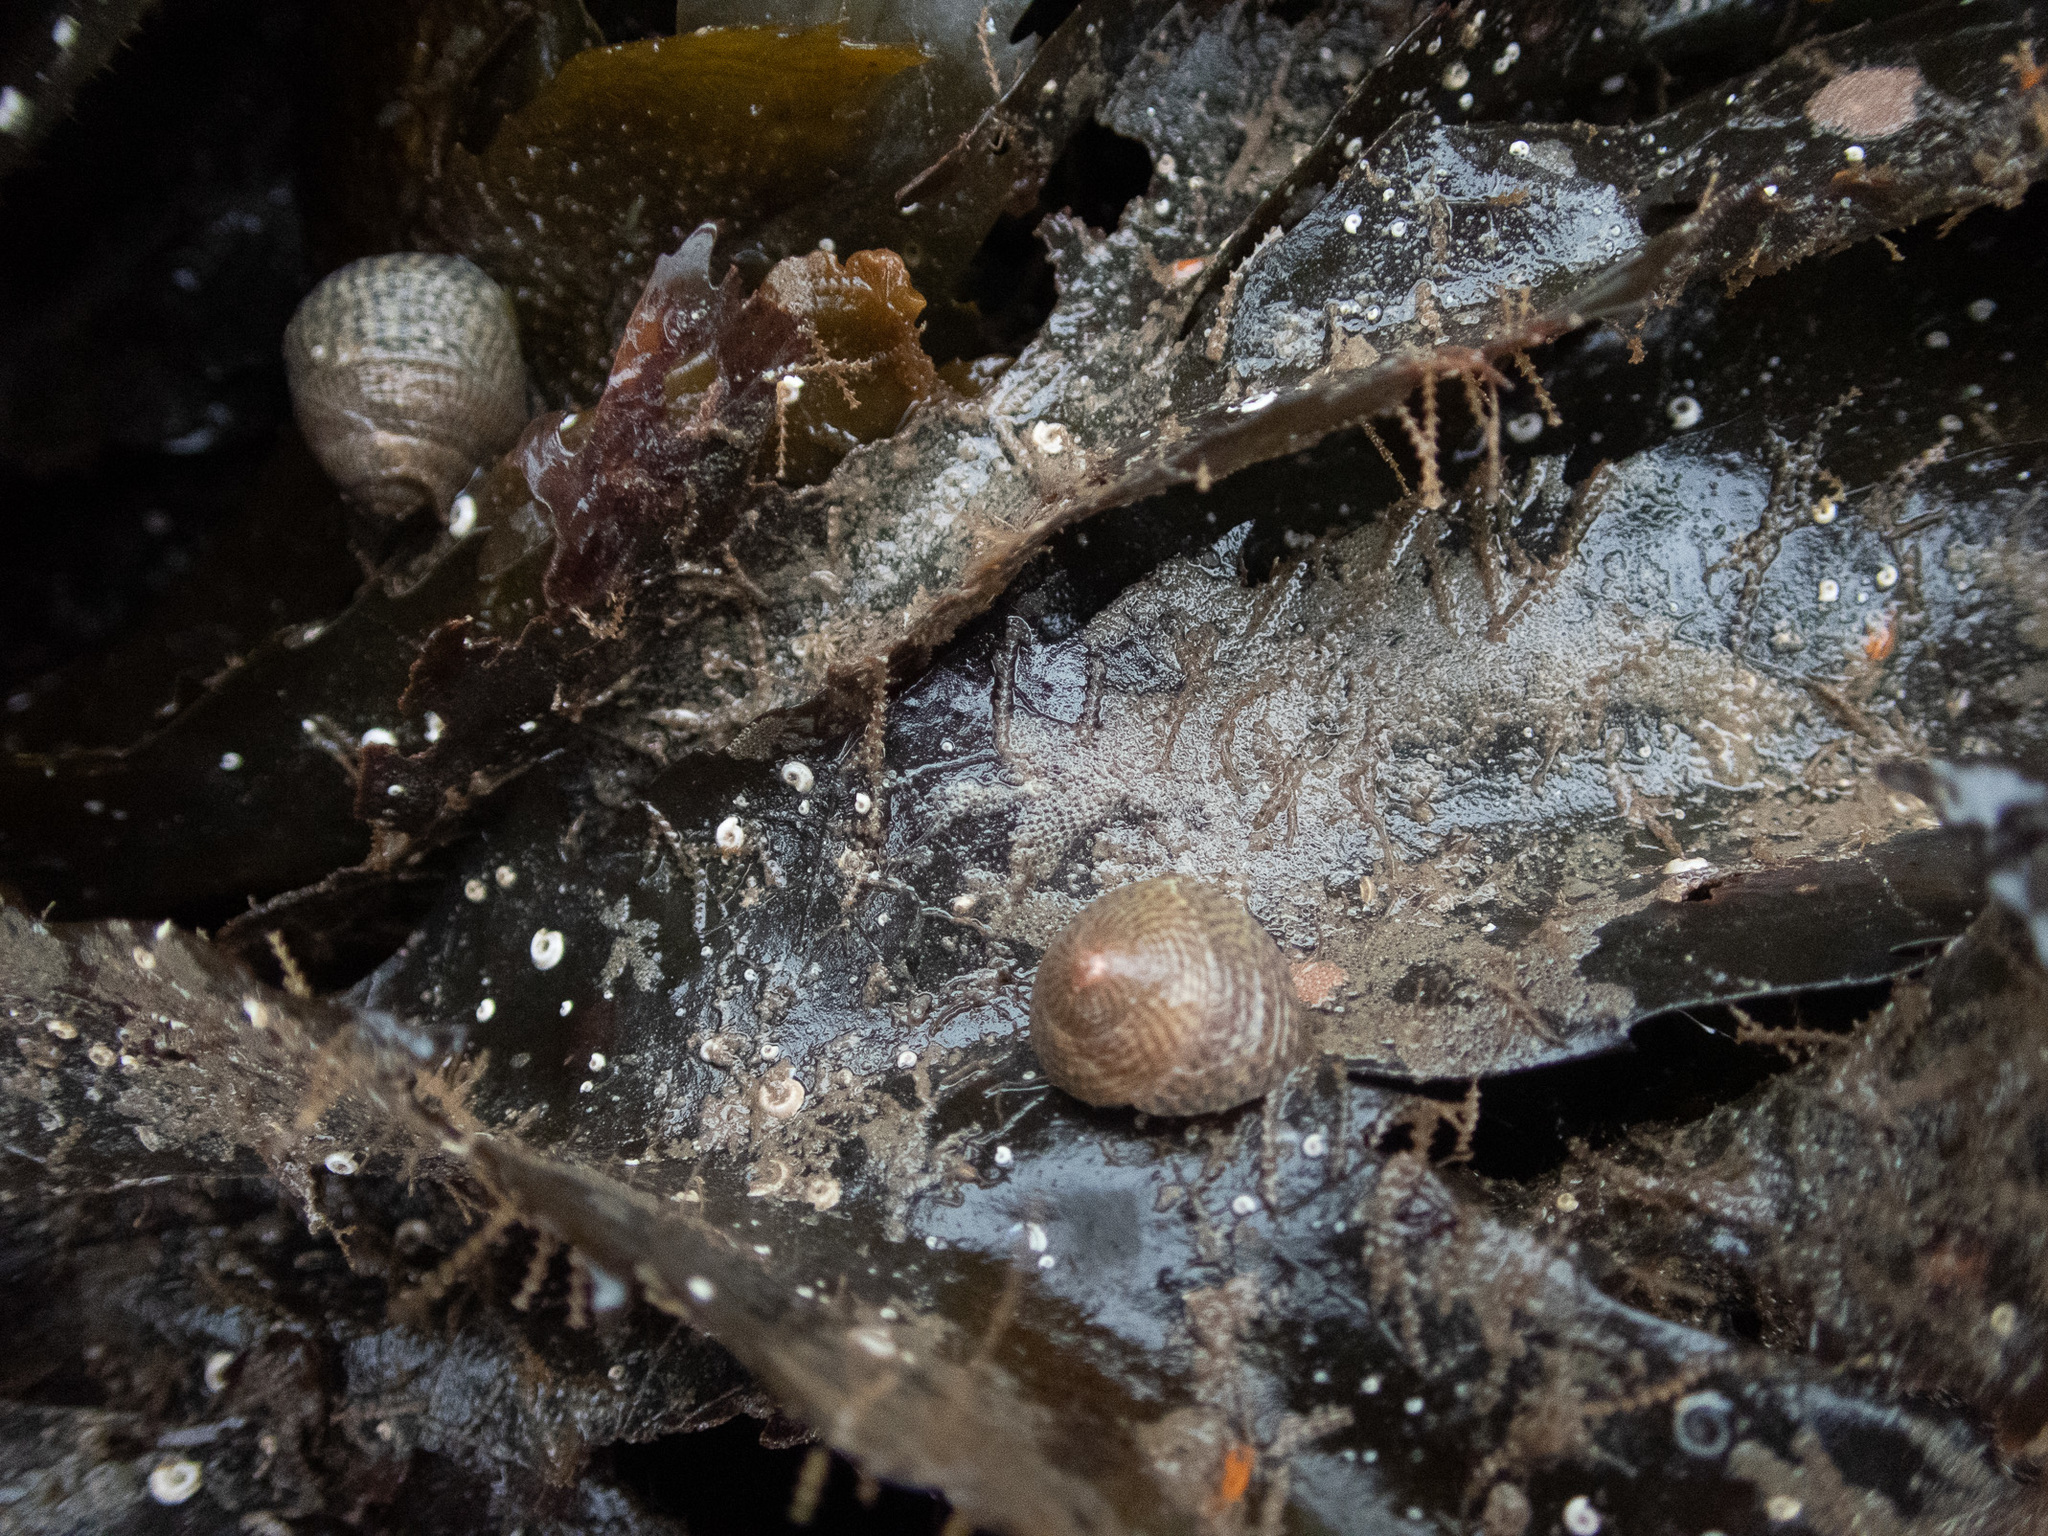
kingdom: Animalia
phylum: Mollusca
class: Gastropoda
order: Trochida
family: Trochidae
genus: Steromphala
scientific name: Steromphala cineraria
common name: Grey top shell
